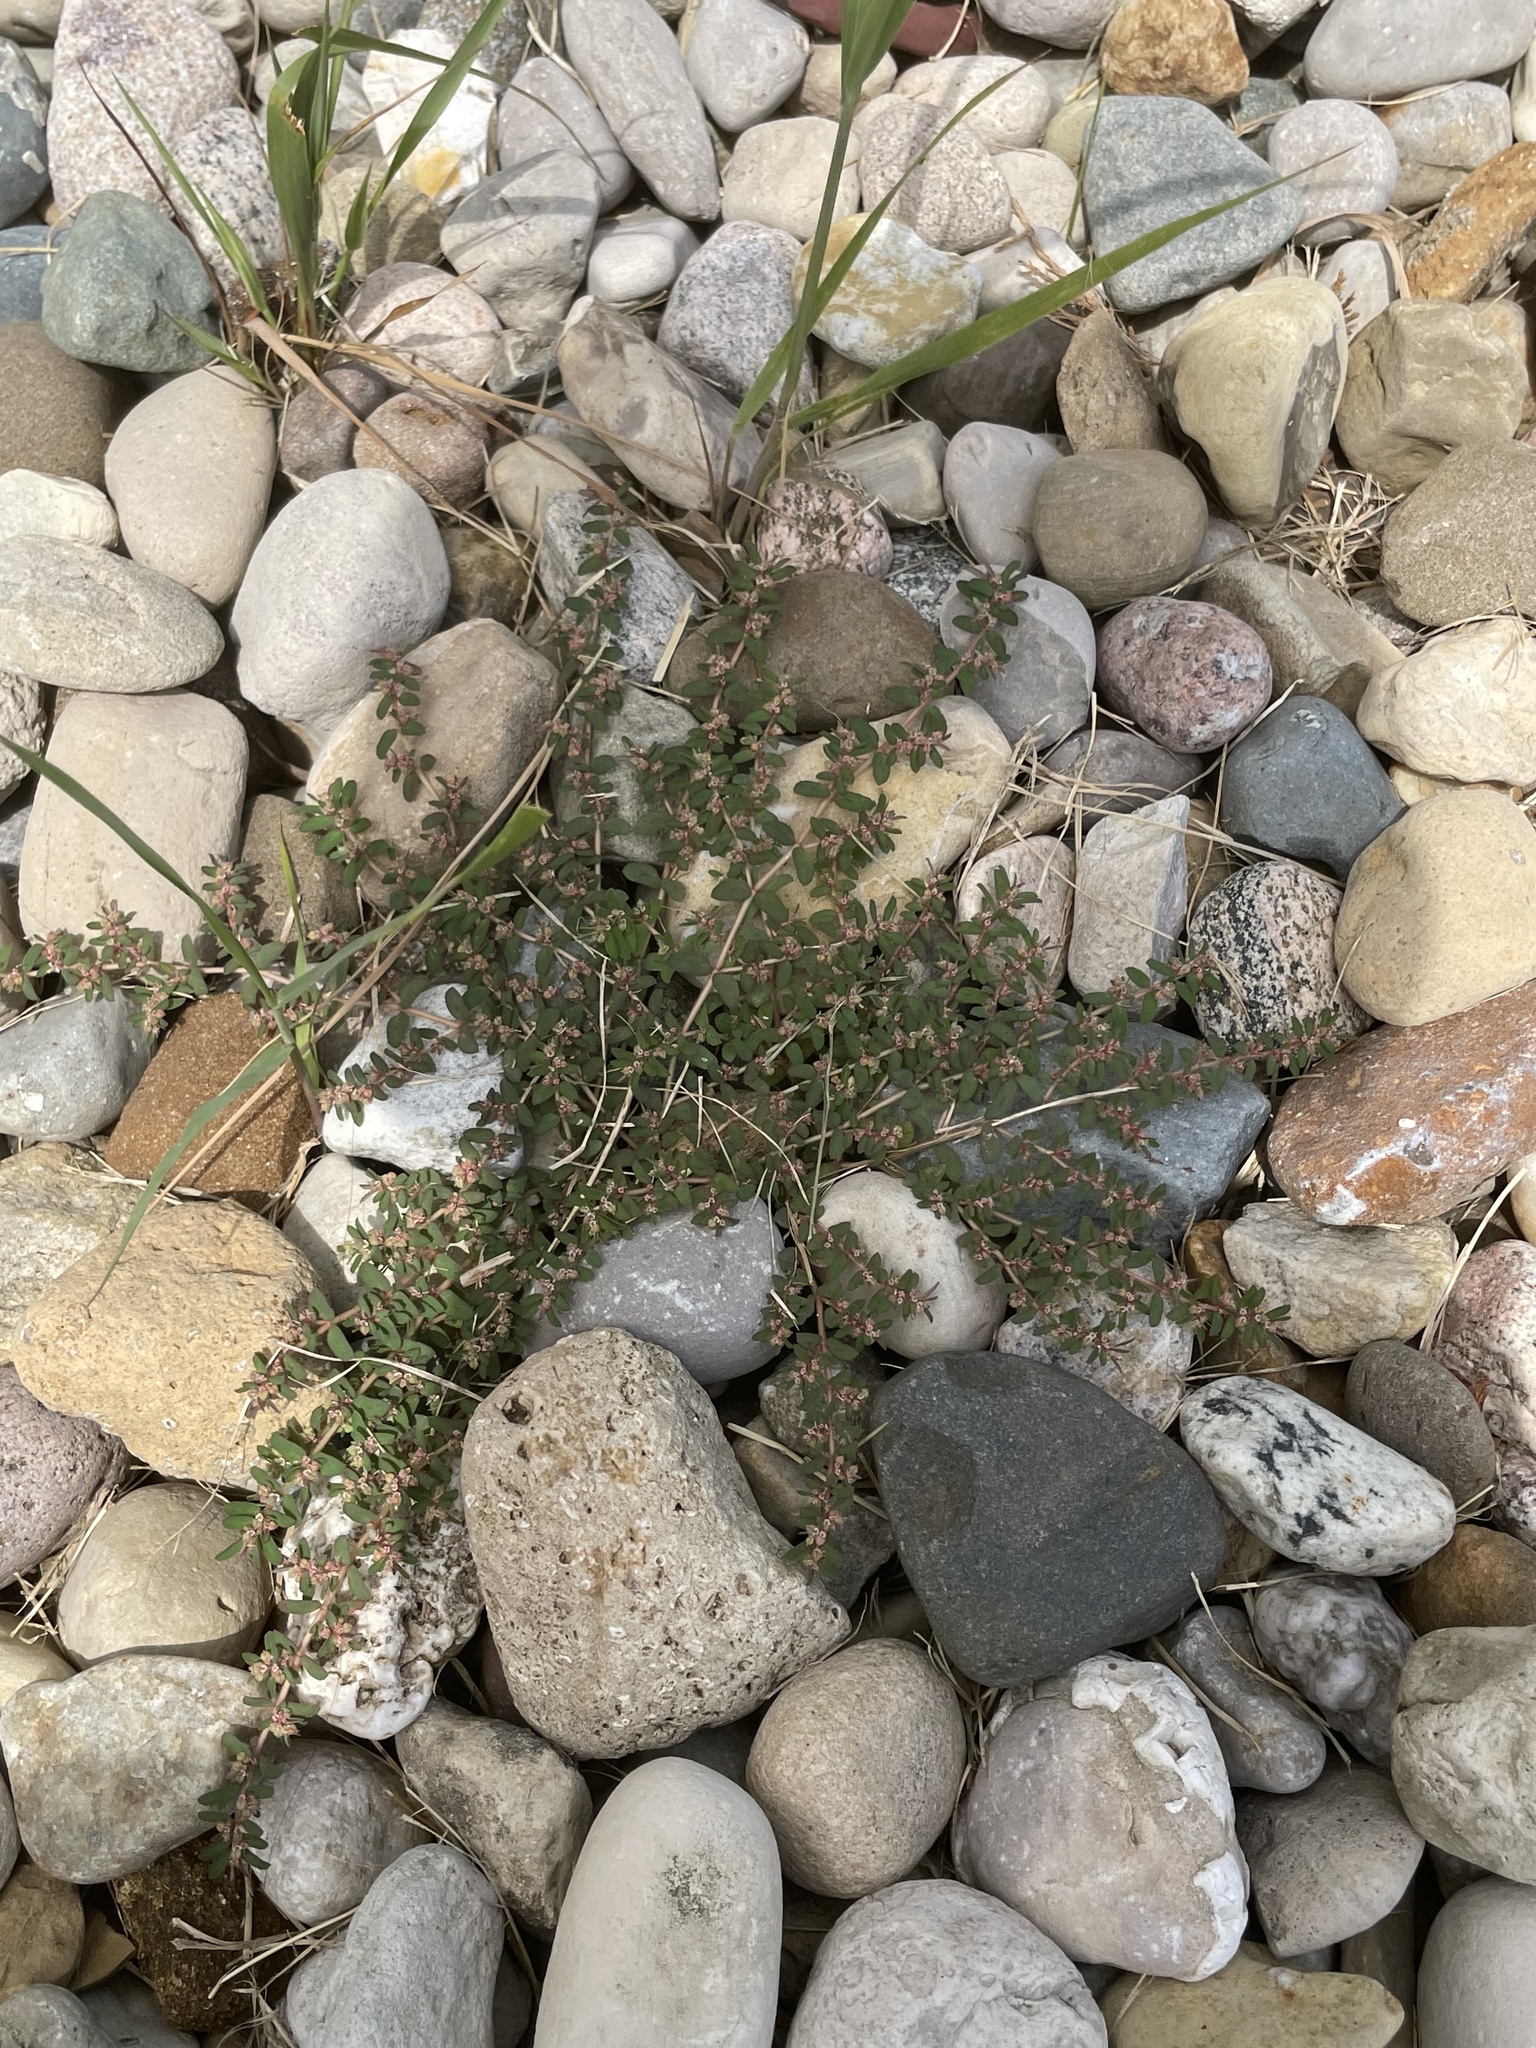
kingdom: Plantae
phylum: Tracheophyta
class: Magnoliopsida
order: Malpighiales
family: Euphorbiaceae
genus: Euphorbia
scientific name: Euphorbia maculata
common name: Spotted spurge
